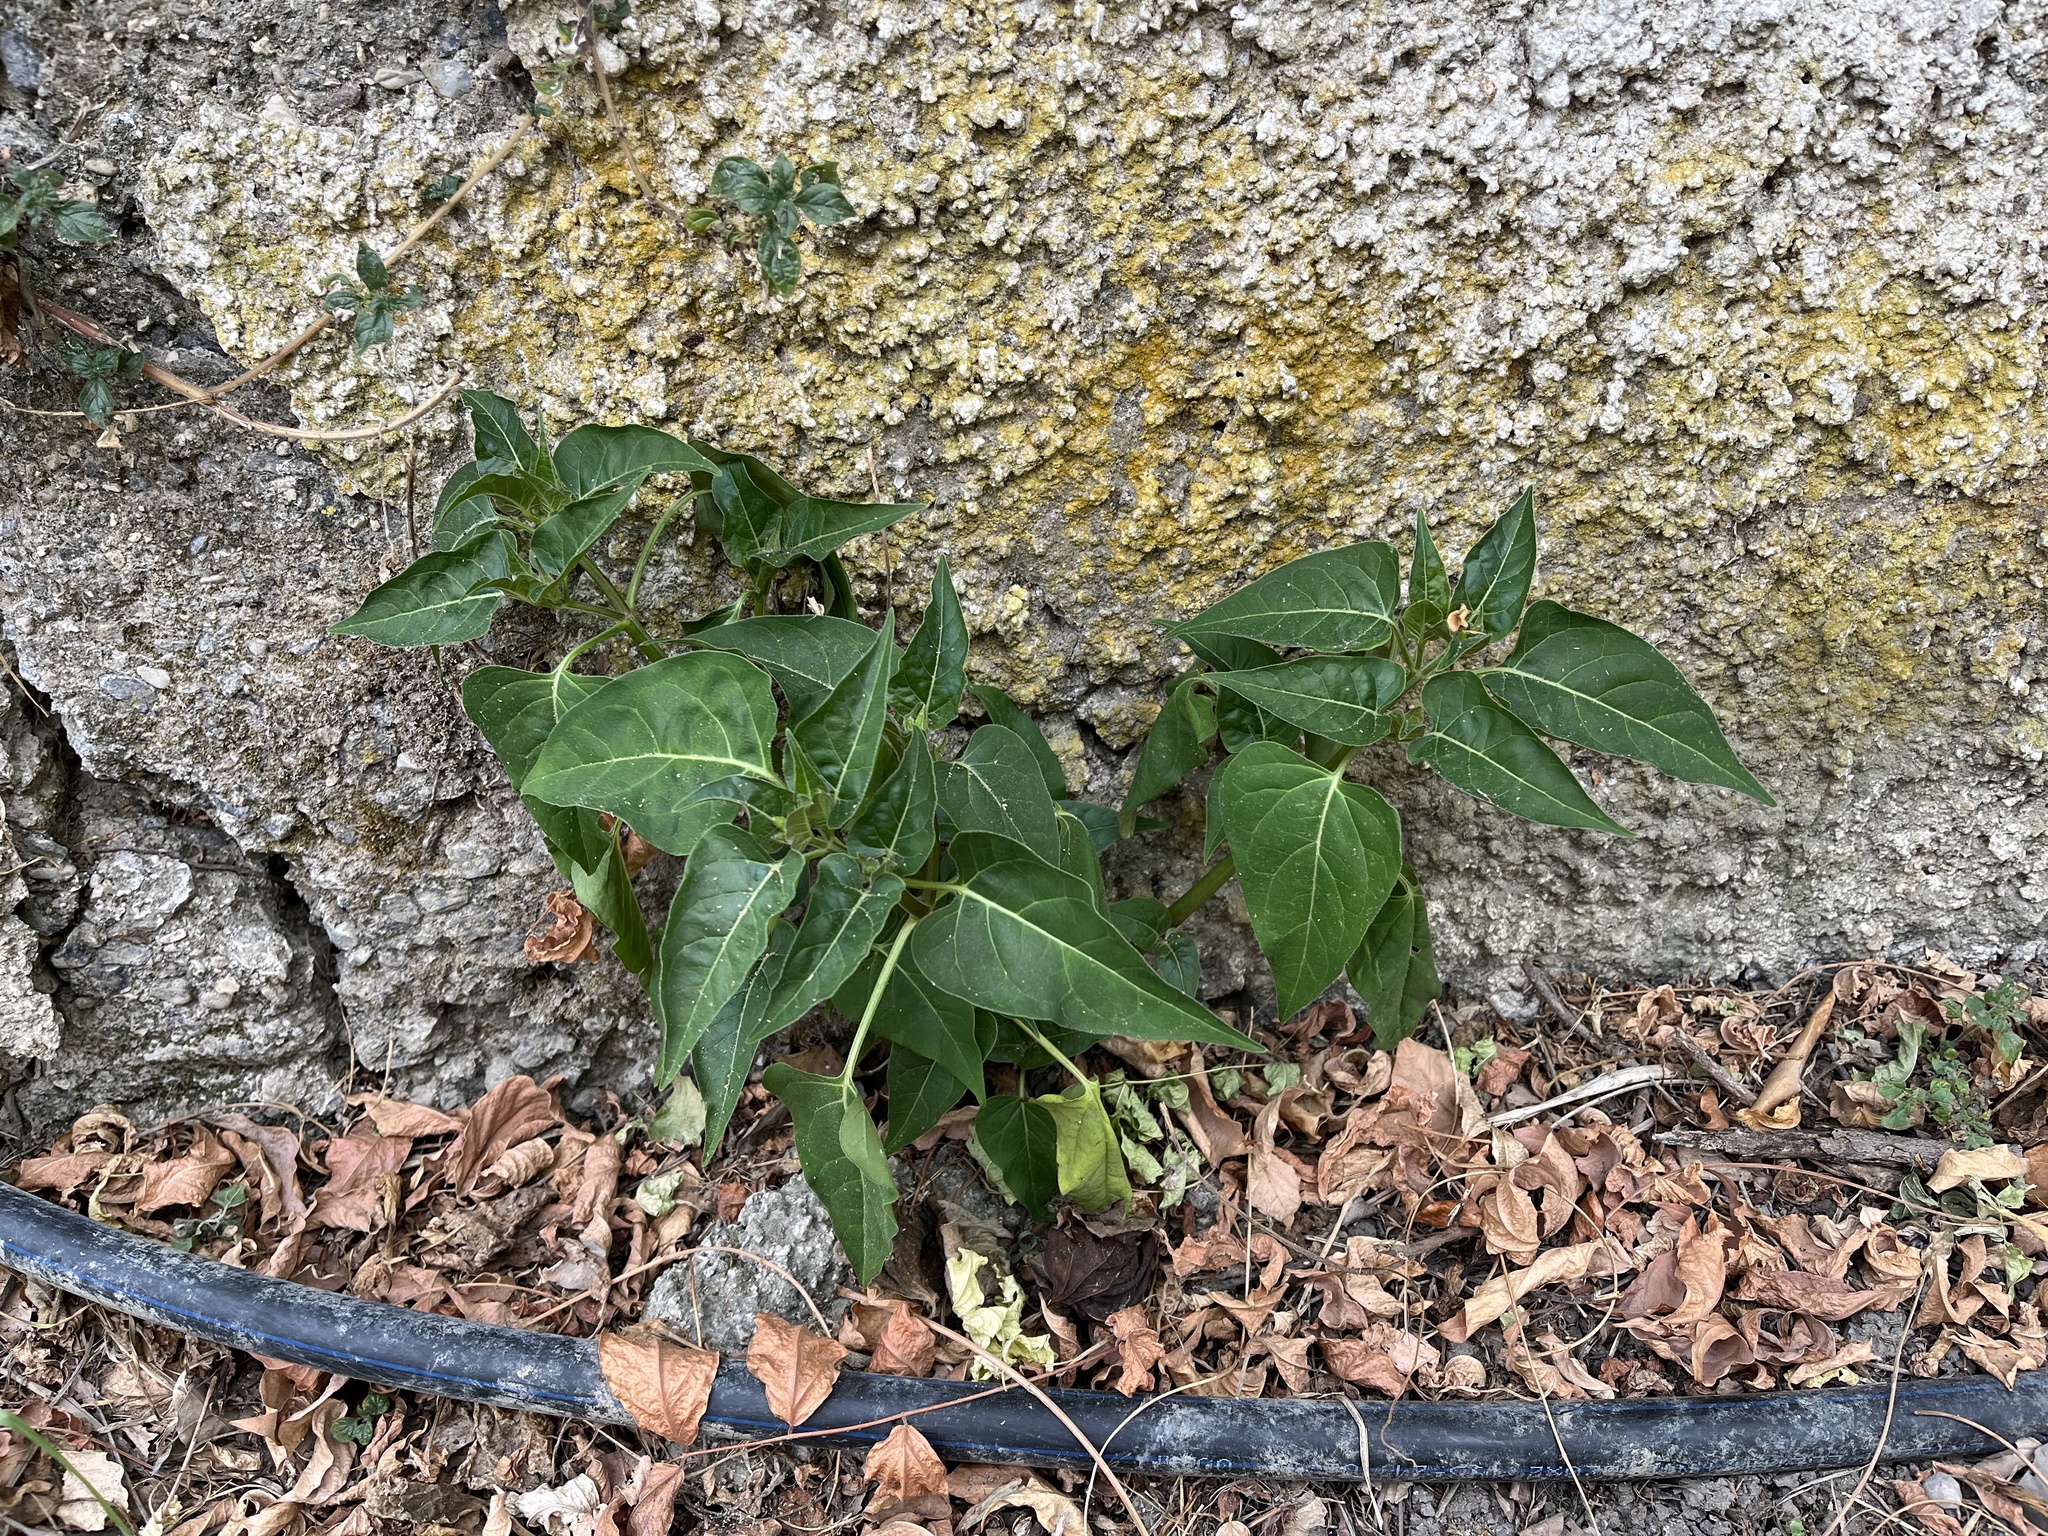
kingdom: Plantae
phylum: Tracheophyta
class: Magnoliopsida
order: Caryophyllales
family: Nyctaginaceae
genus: Mirabilis
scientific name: Mirabilis jalapa
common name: Marvel-of-peru
